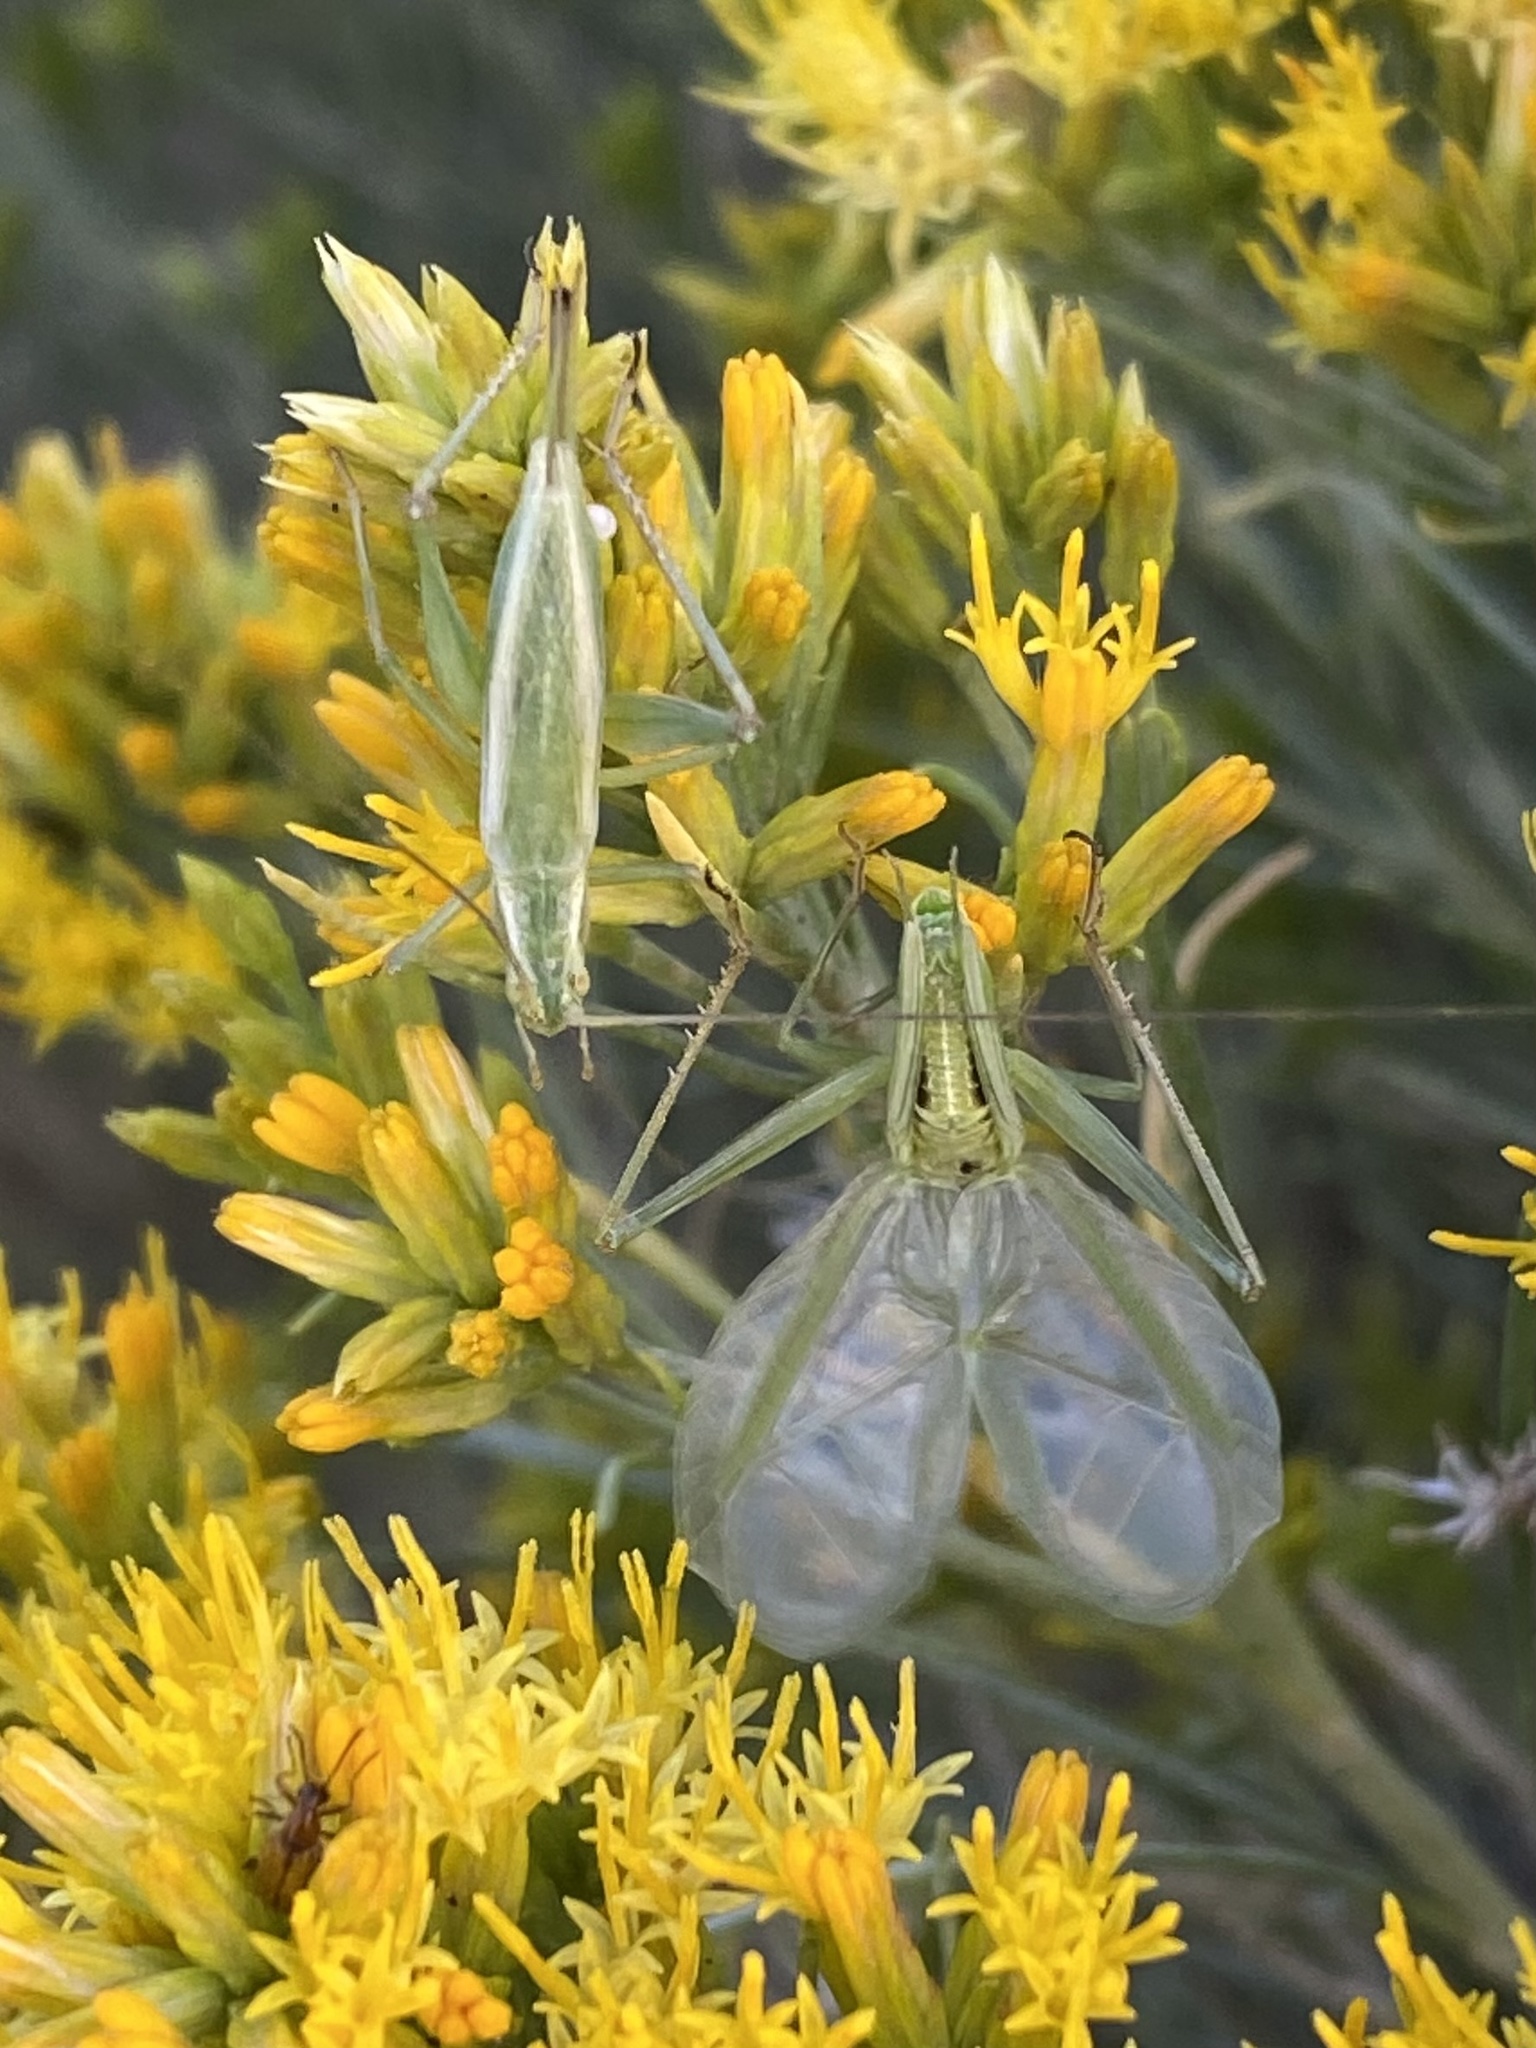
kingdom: Animalia
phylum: Arthropoda
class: Insecta
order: Coleoptera
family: Chrysomelidae
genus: Alticini
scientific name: Alticini
